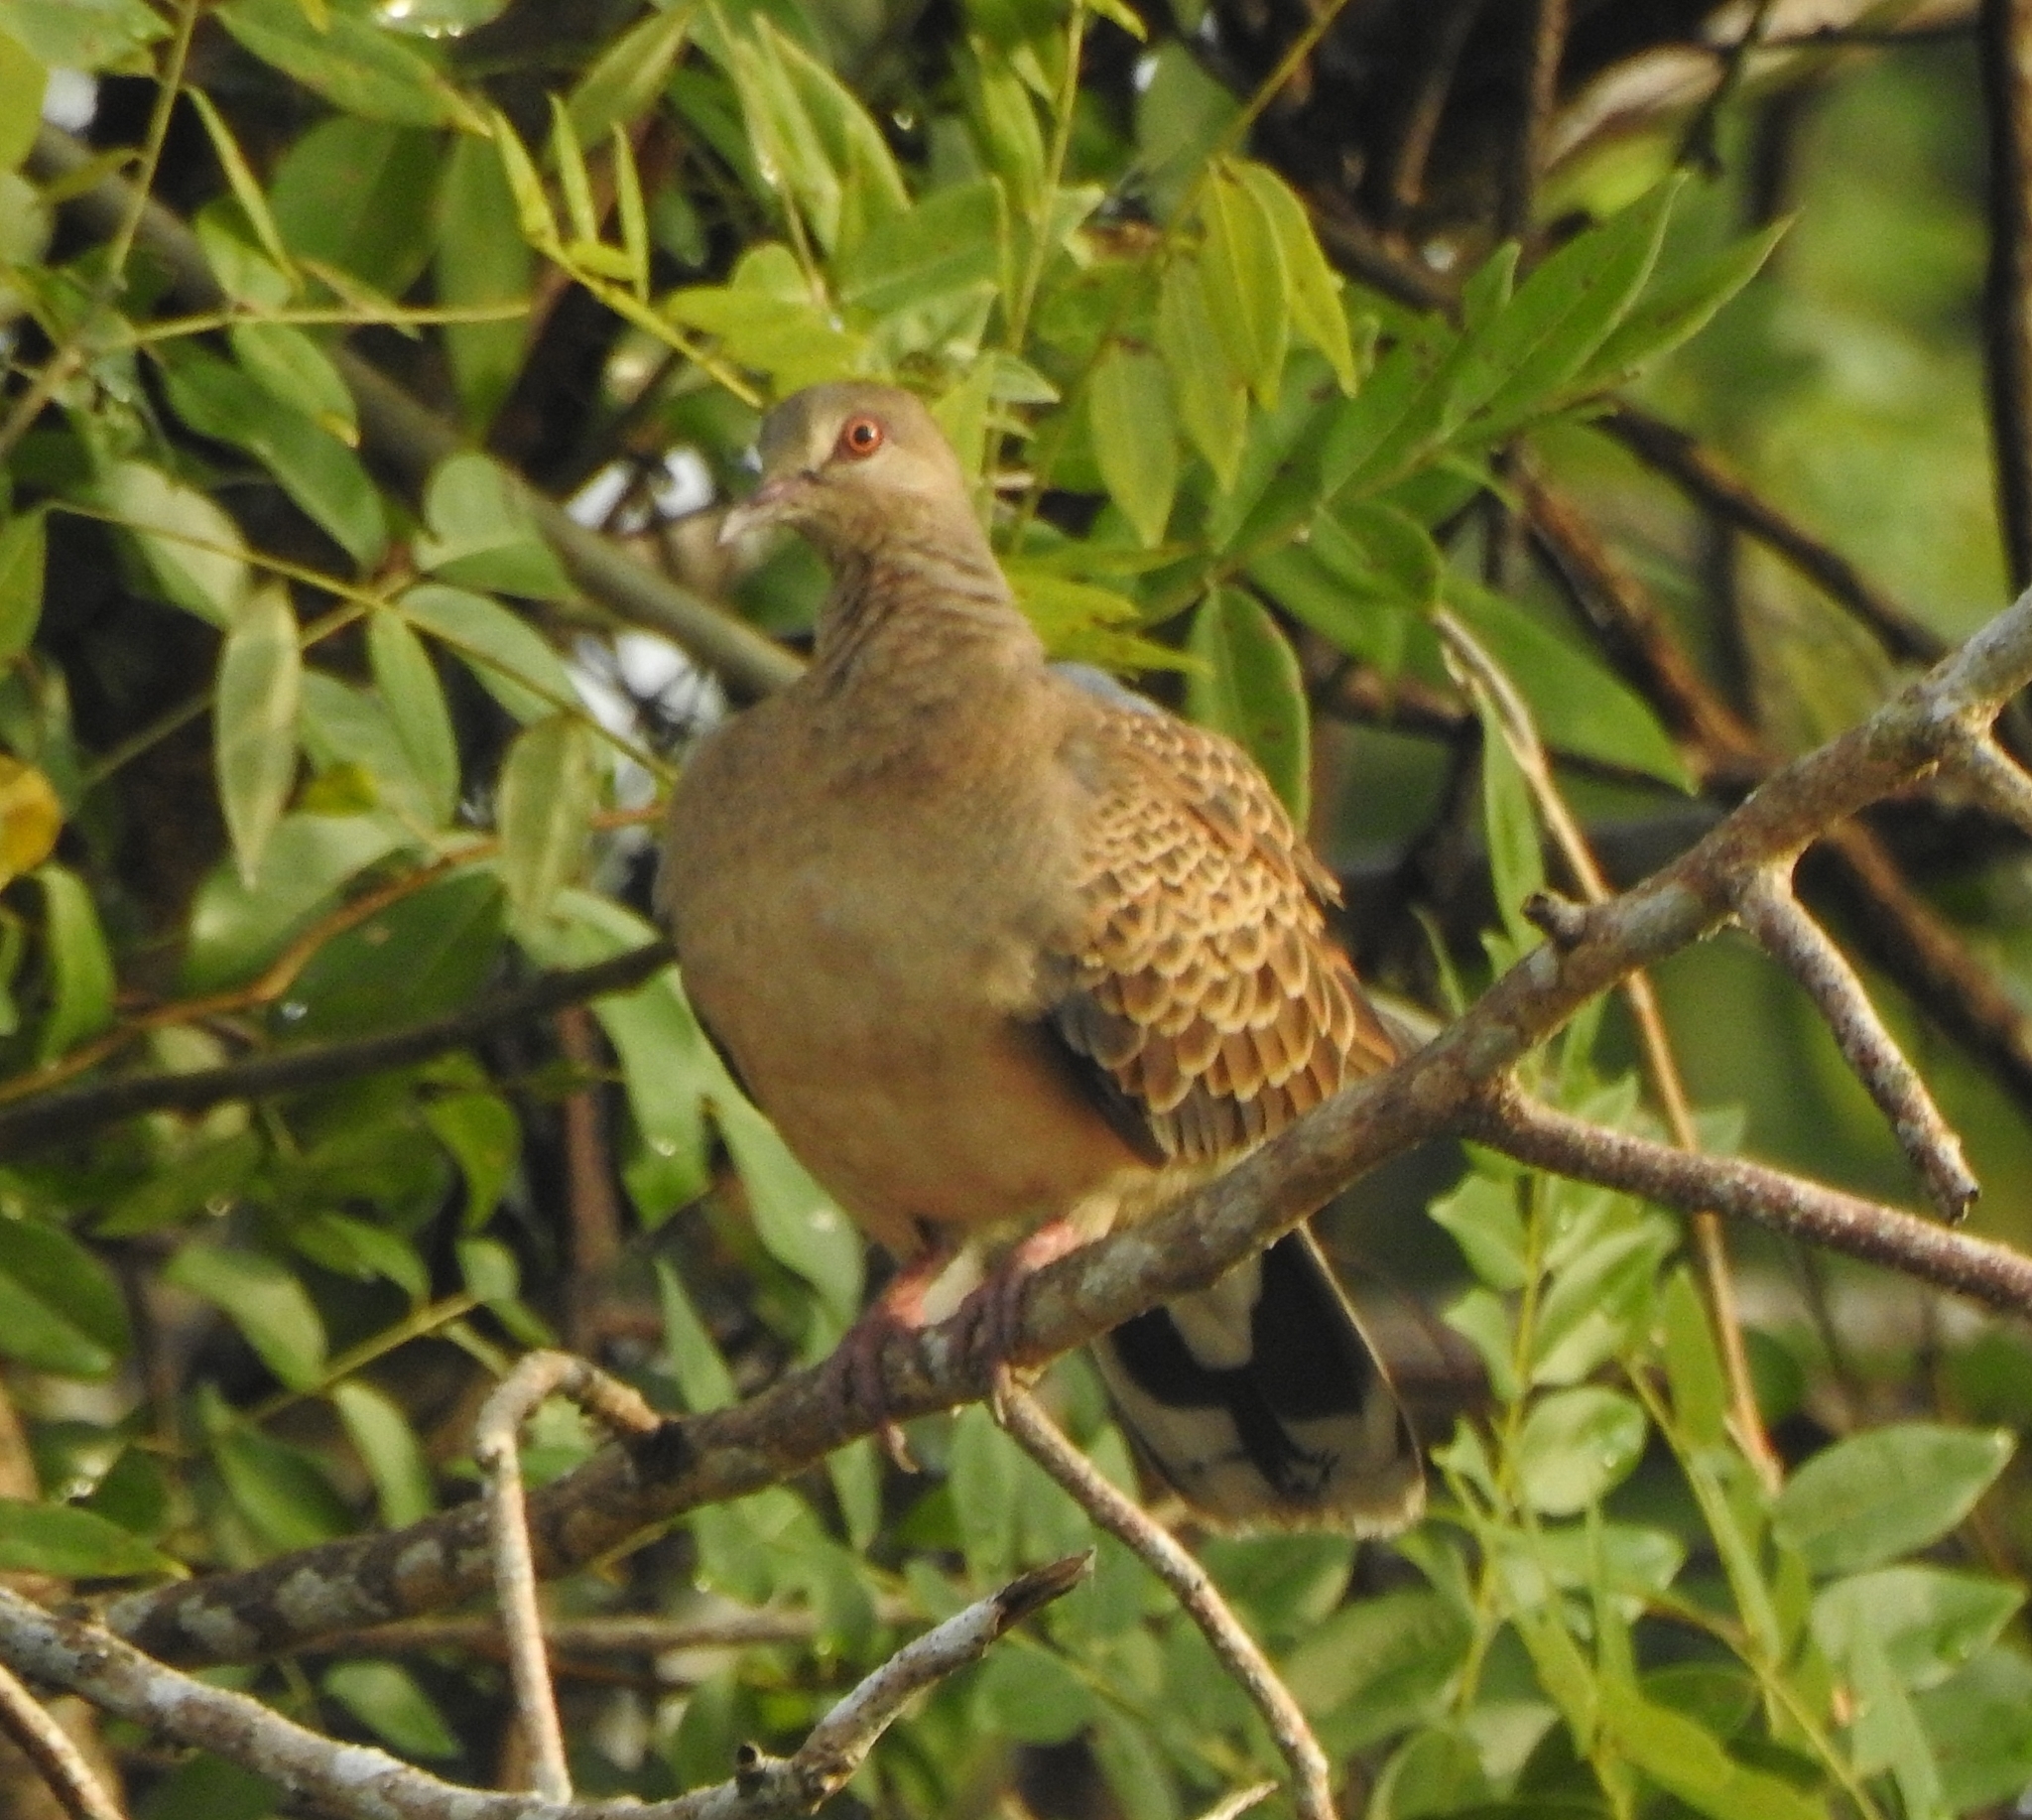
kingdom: Animalia
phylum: Chordata
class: Aves
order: Columbiformes
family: Columbidae
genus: Streptopelia
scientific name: Streptopelia orientalis
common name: Oriental turtle dove
